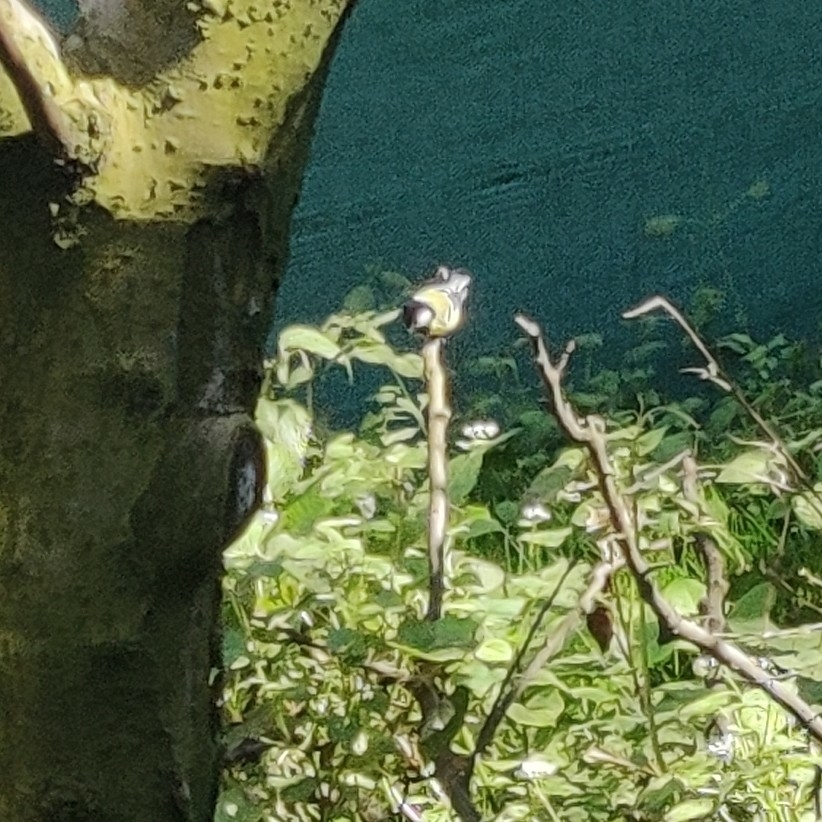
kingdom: Animalia
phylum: Chordata
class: Aves
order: Passeriformes
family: Paridae
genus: Parus
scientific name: Parus monticolus
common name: Green-backed tit
